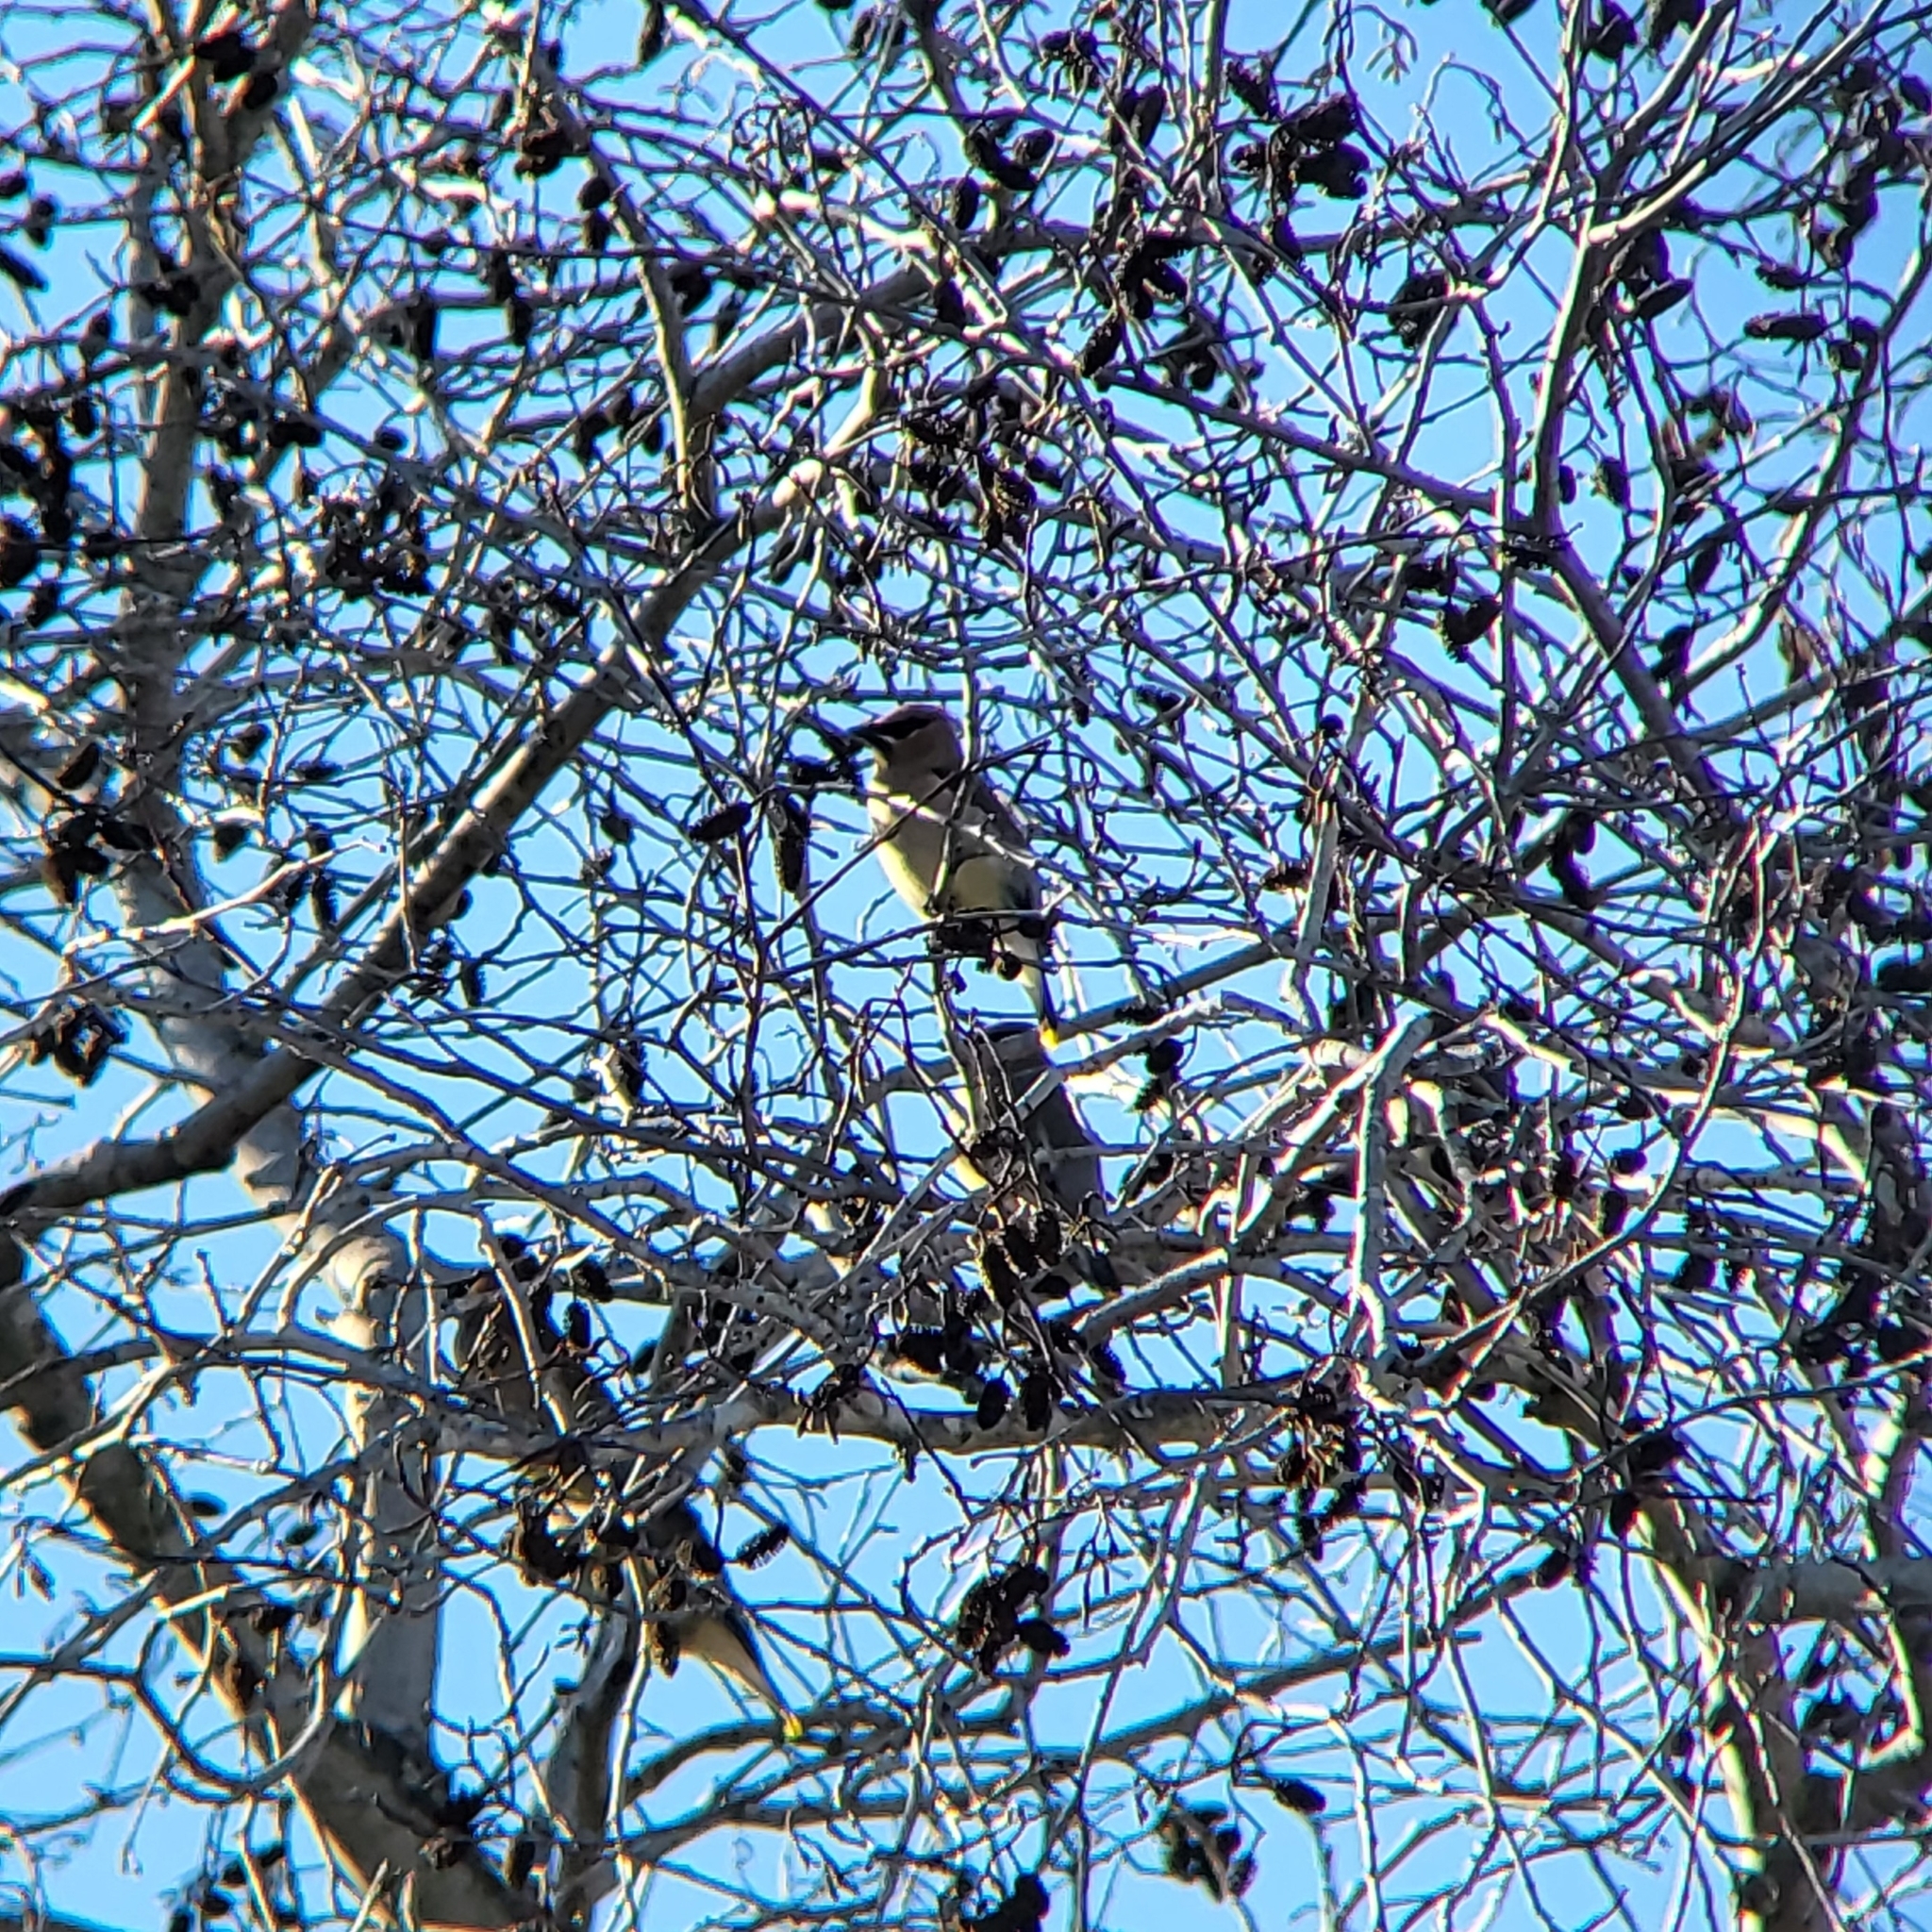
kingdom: Animalia
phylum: Chordata
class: Aves
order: Passeriformes
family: Bombycillidae
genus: Bombycilla
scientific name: Bombycilla cedrorum
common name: Cedar waxwing
